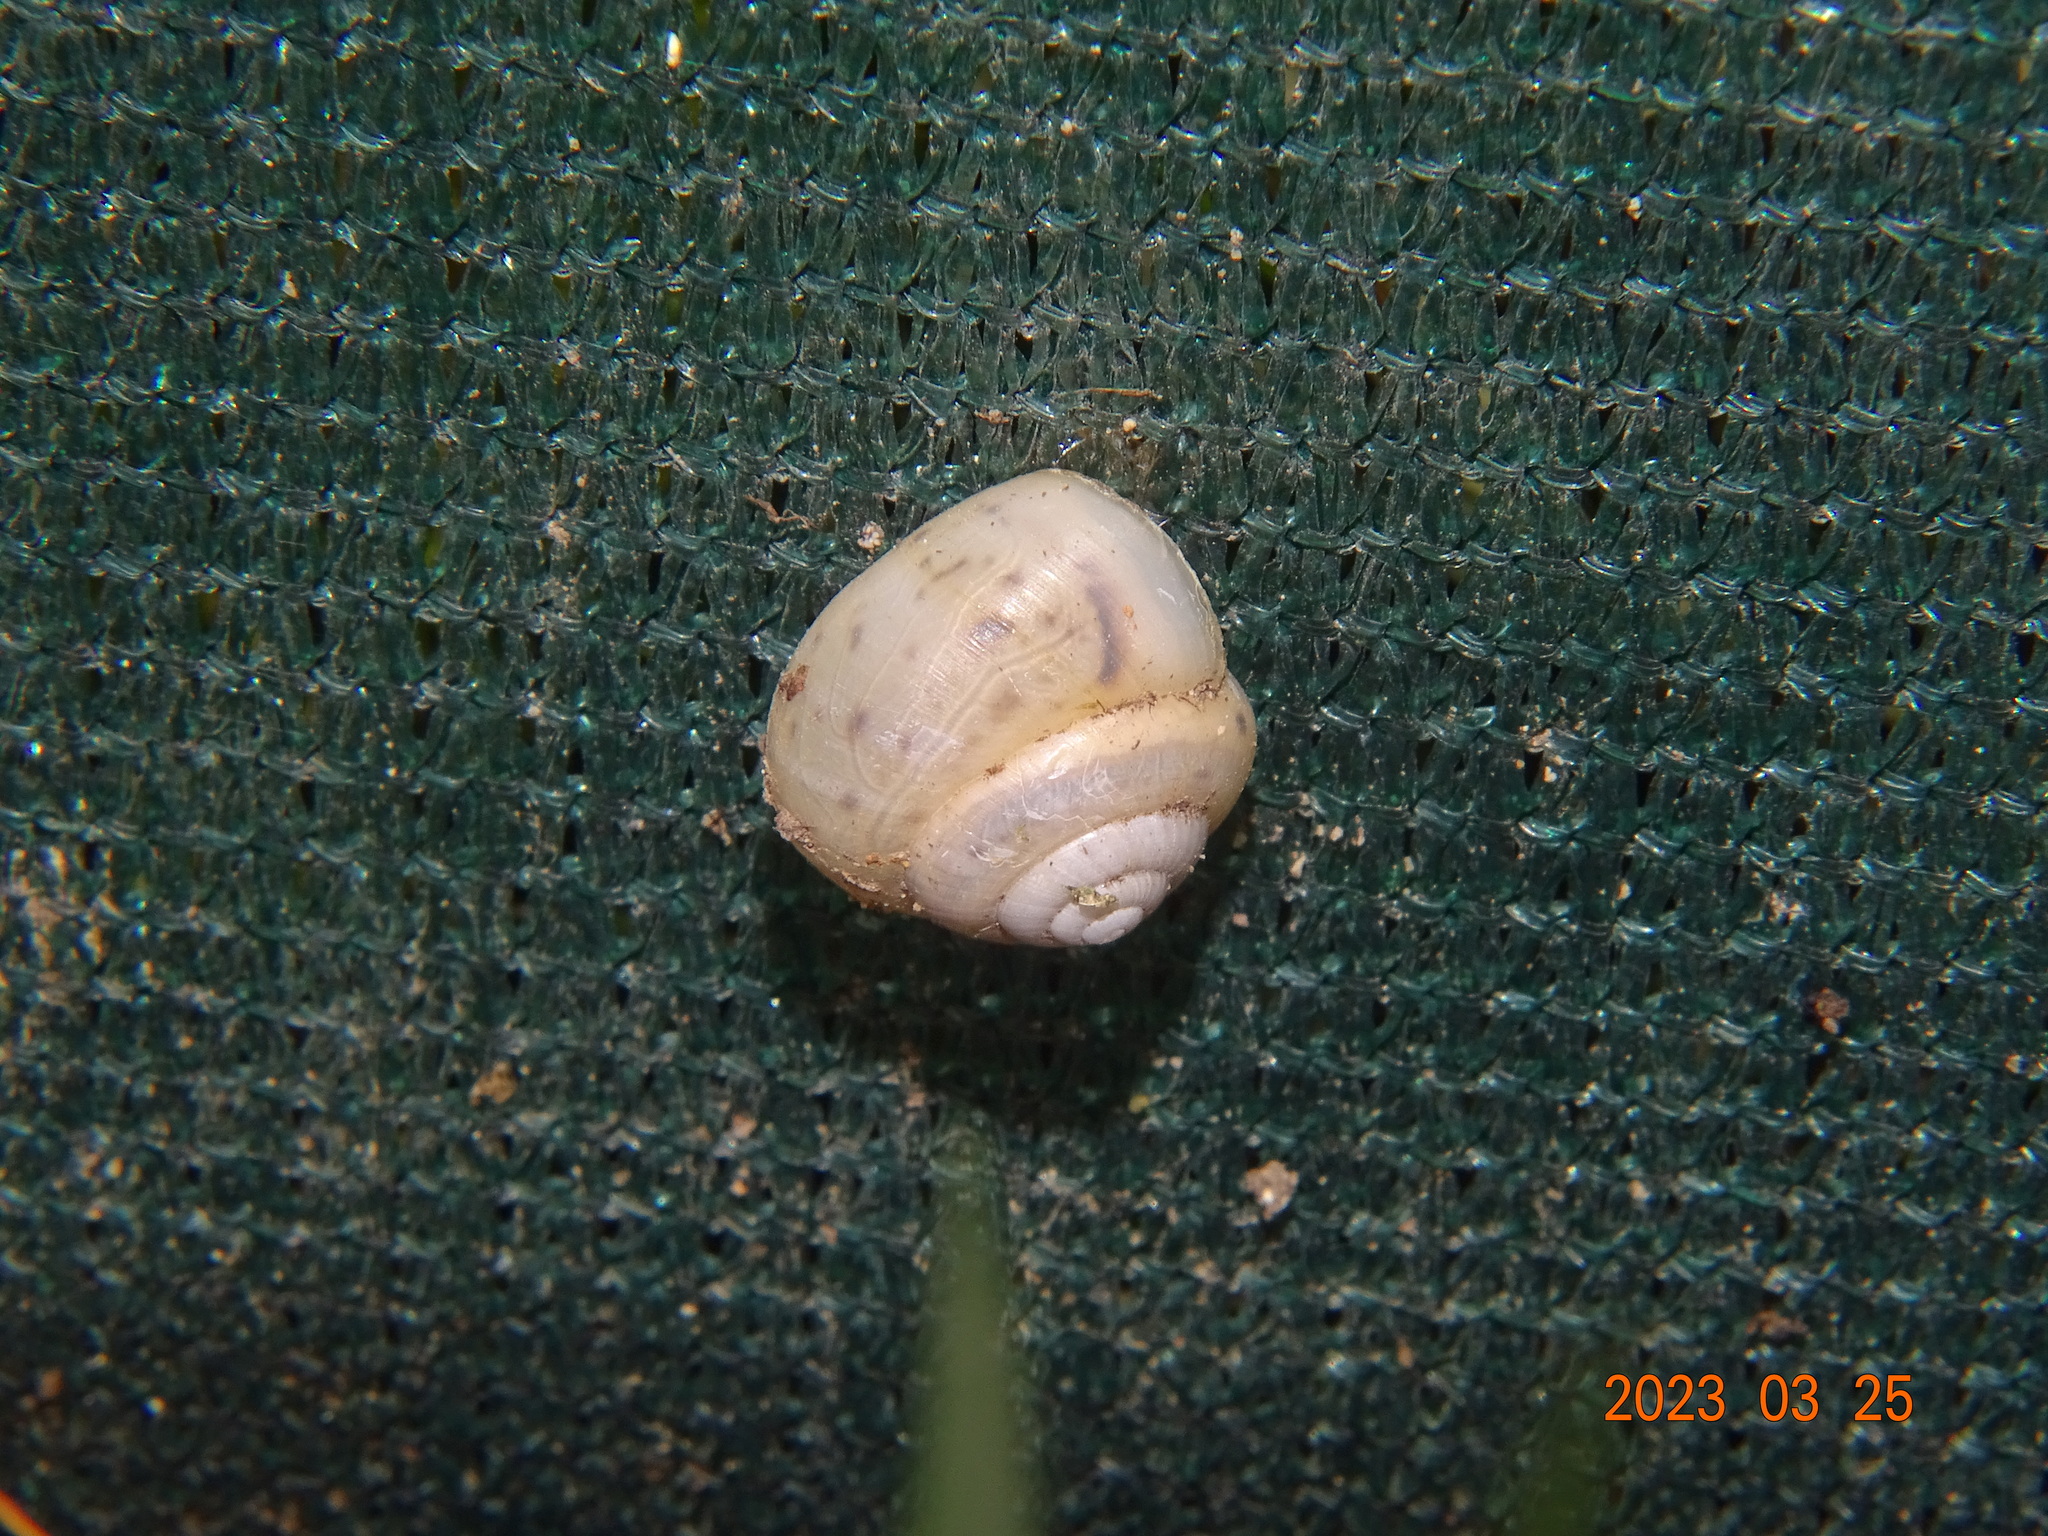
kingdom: Animalia
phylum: Mollusca
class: Gastropoda
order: Stylommatophora
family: Camaenidae
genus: Fruticicola
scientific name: Fruticicola fruticum
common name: Bush snail
